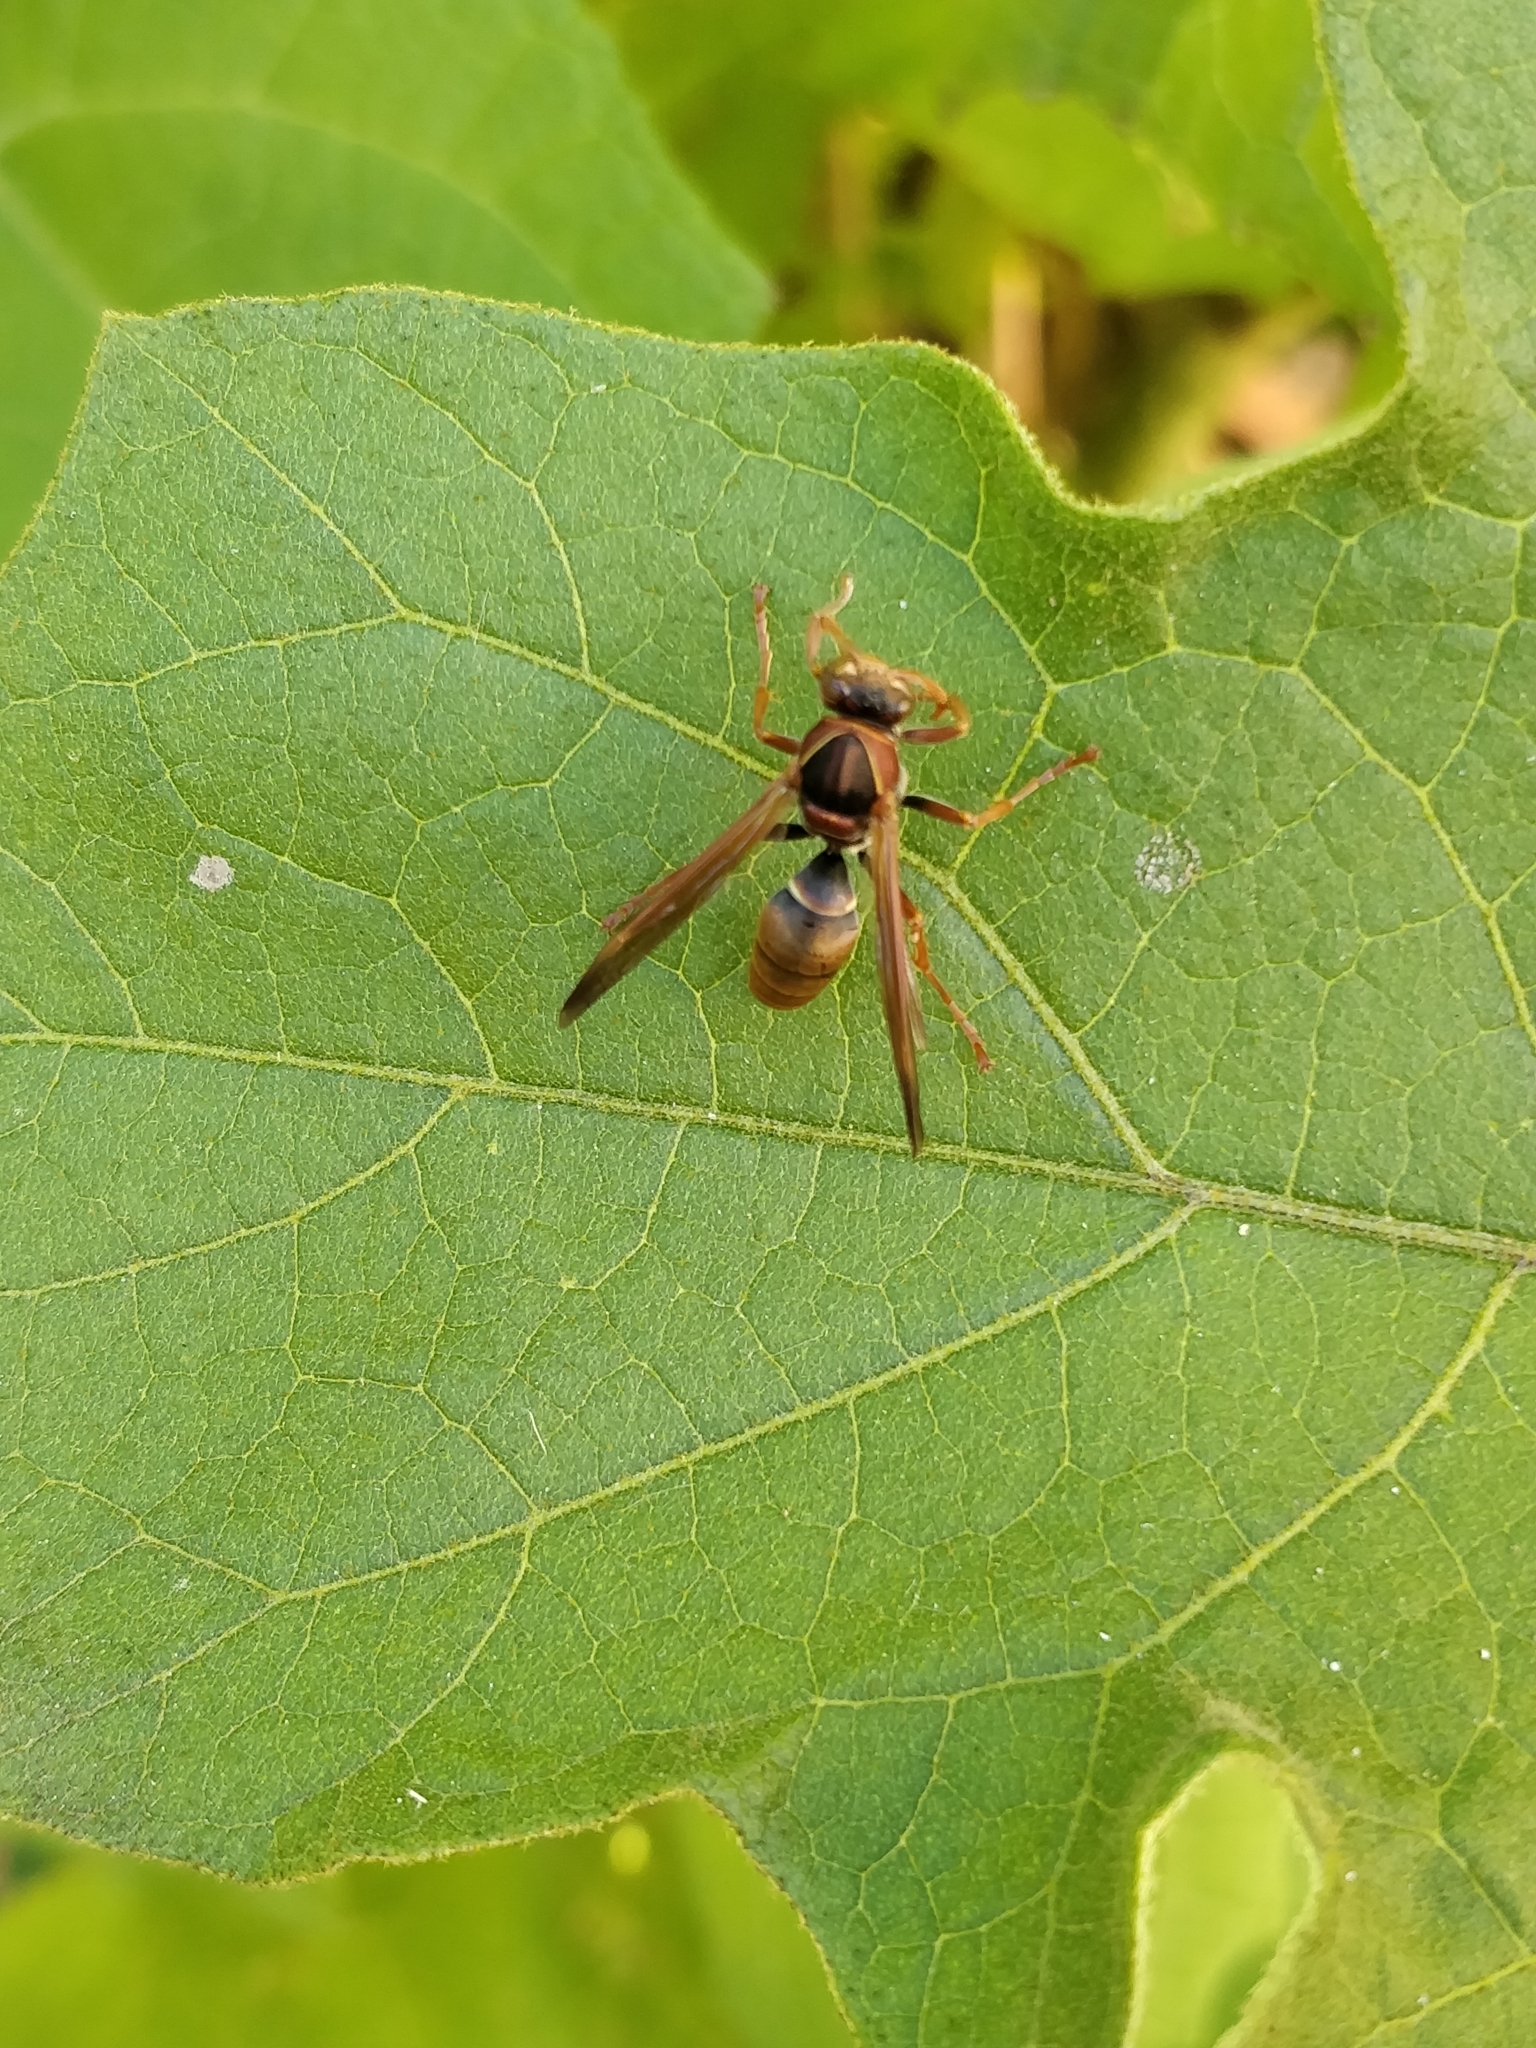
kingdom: Animalia
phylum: Arthropoda
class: Insecta
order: Hymenoptera
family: Eumenidae
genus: Polistes
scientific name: Polistes humilis
